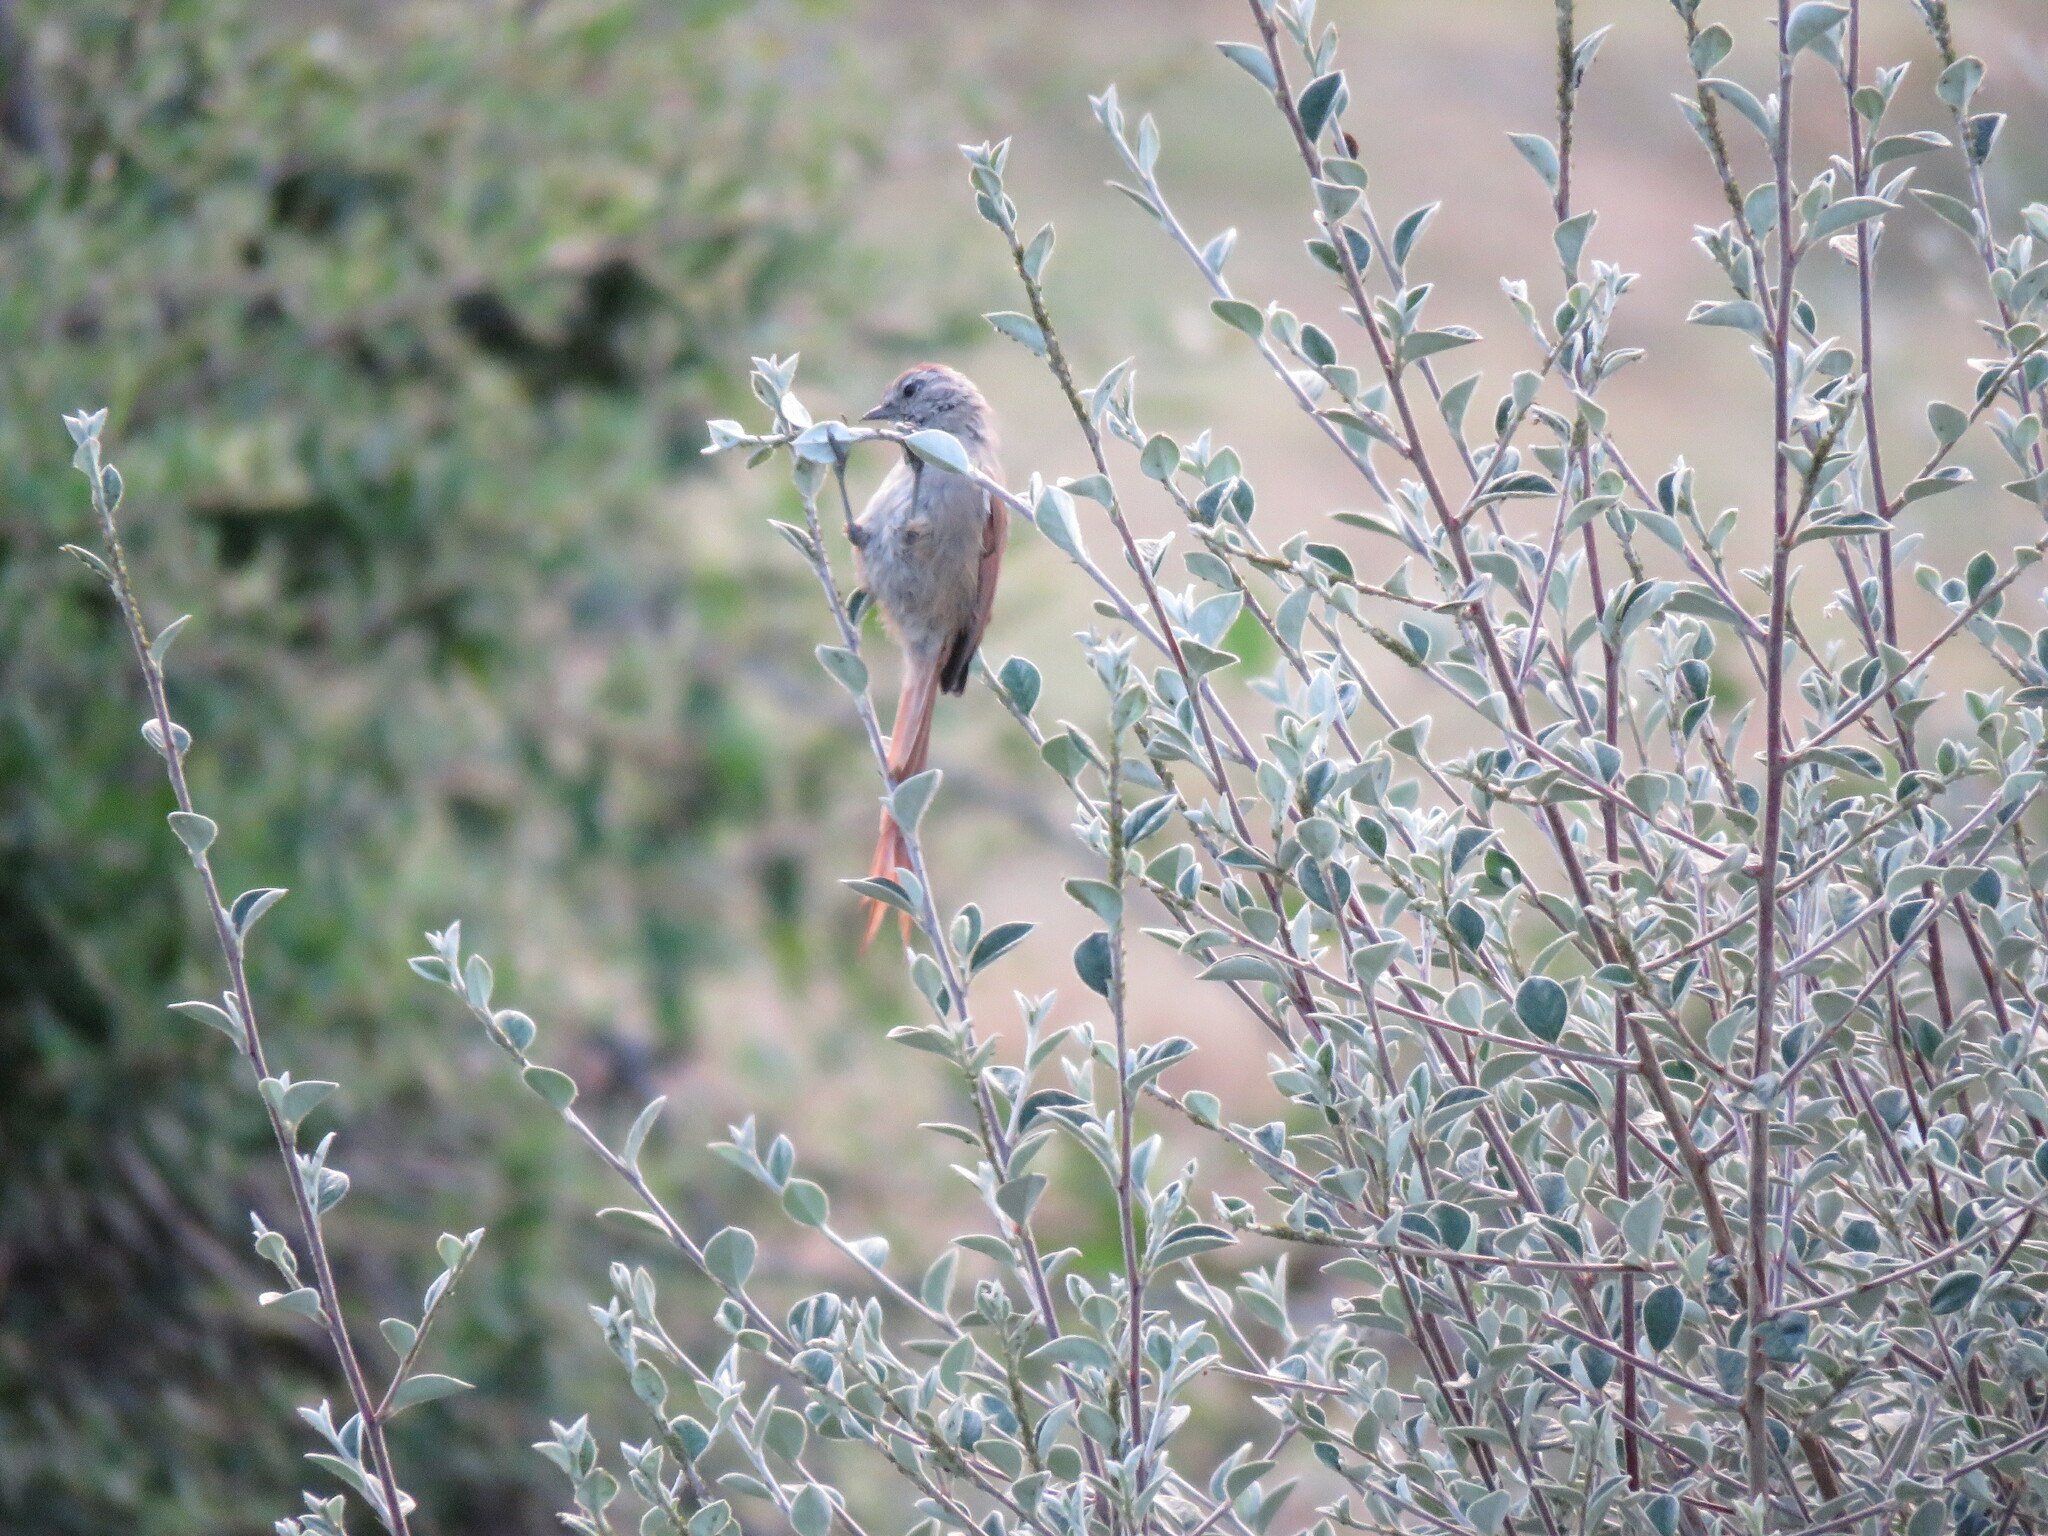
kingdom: Animalia
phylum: Chordata
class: Aves
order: Passeriformes
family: Furnariidae
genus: Leptasthenura
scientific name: Leptasthenura fuliginiceps
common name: Brown-capped tit-spinetail
